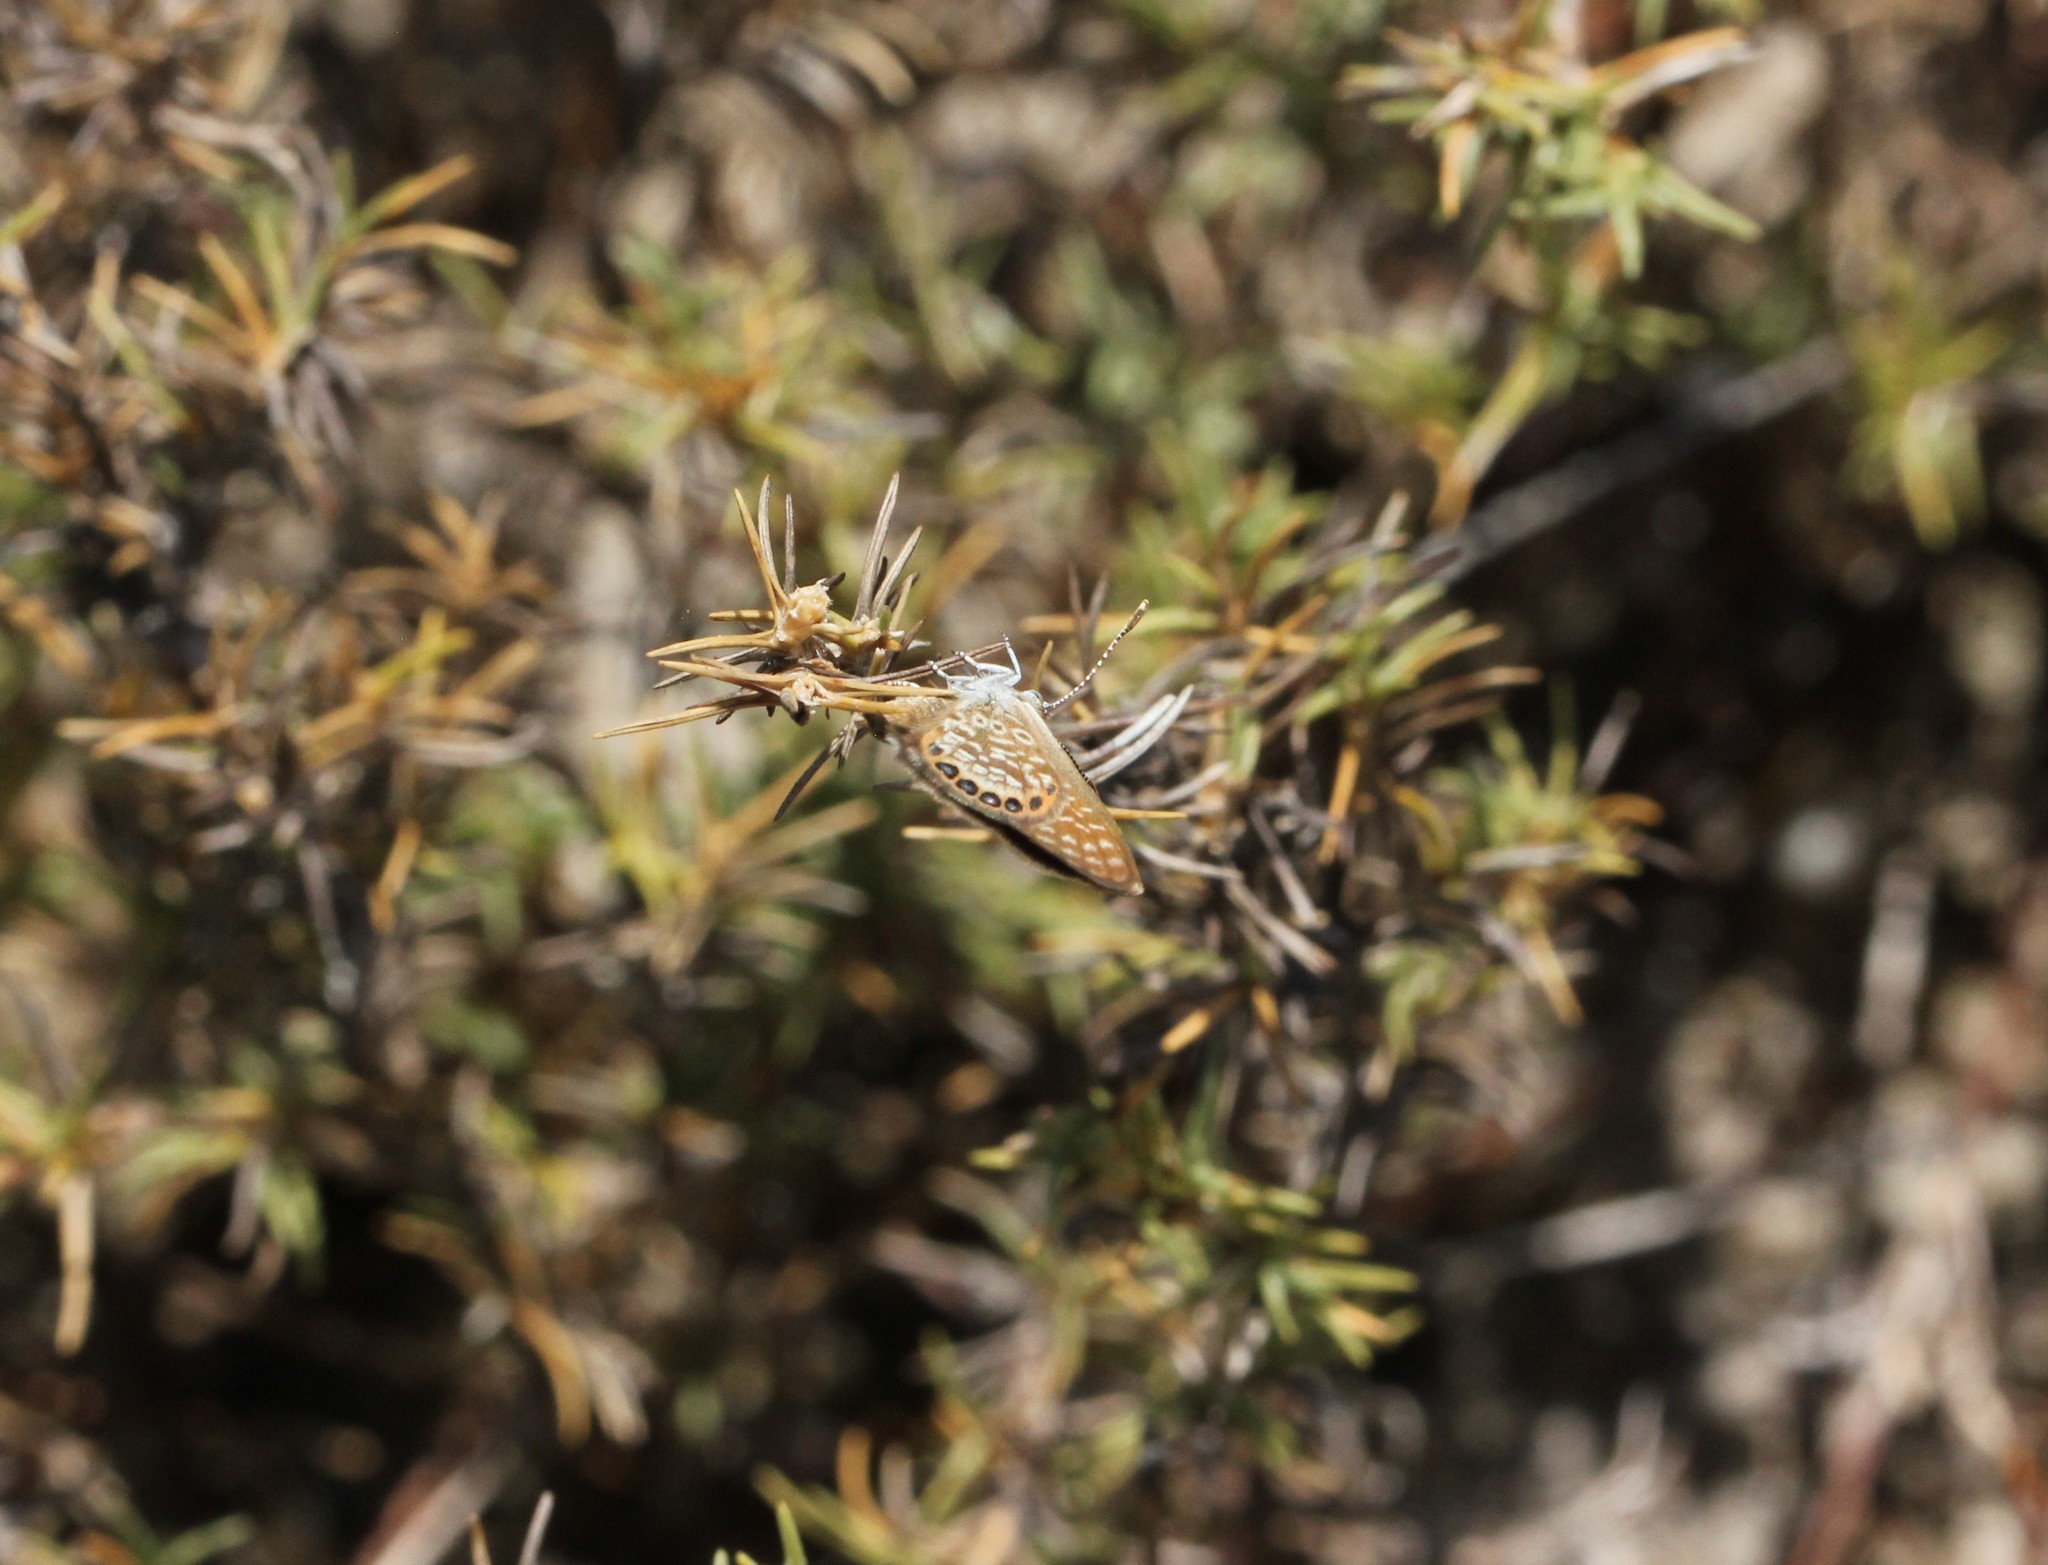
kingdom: Animalia
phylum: Arthropoda
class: Insecta
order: Lepidoptera
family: Lycaenidae
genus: Brephidium
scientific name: Brephidium isophthalma
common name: Eastern pygmy-blue
